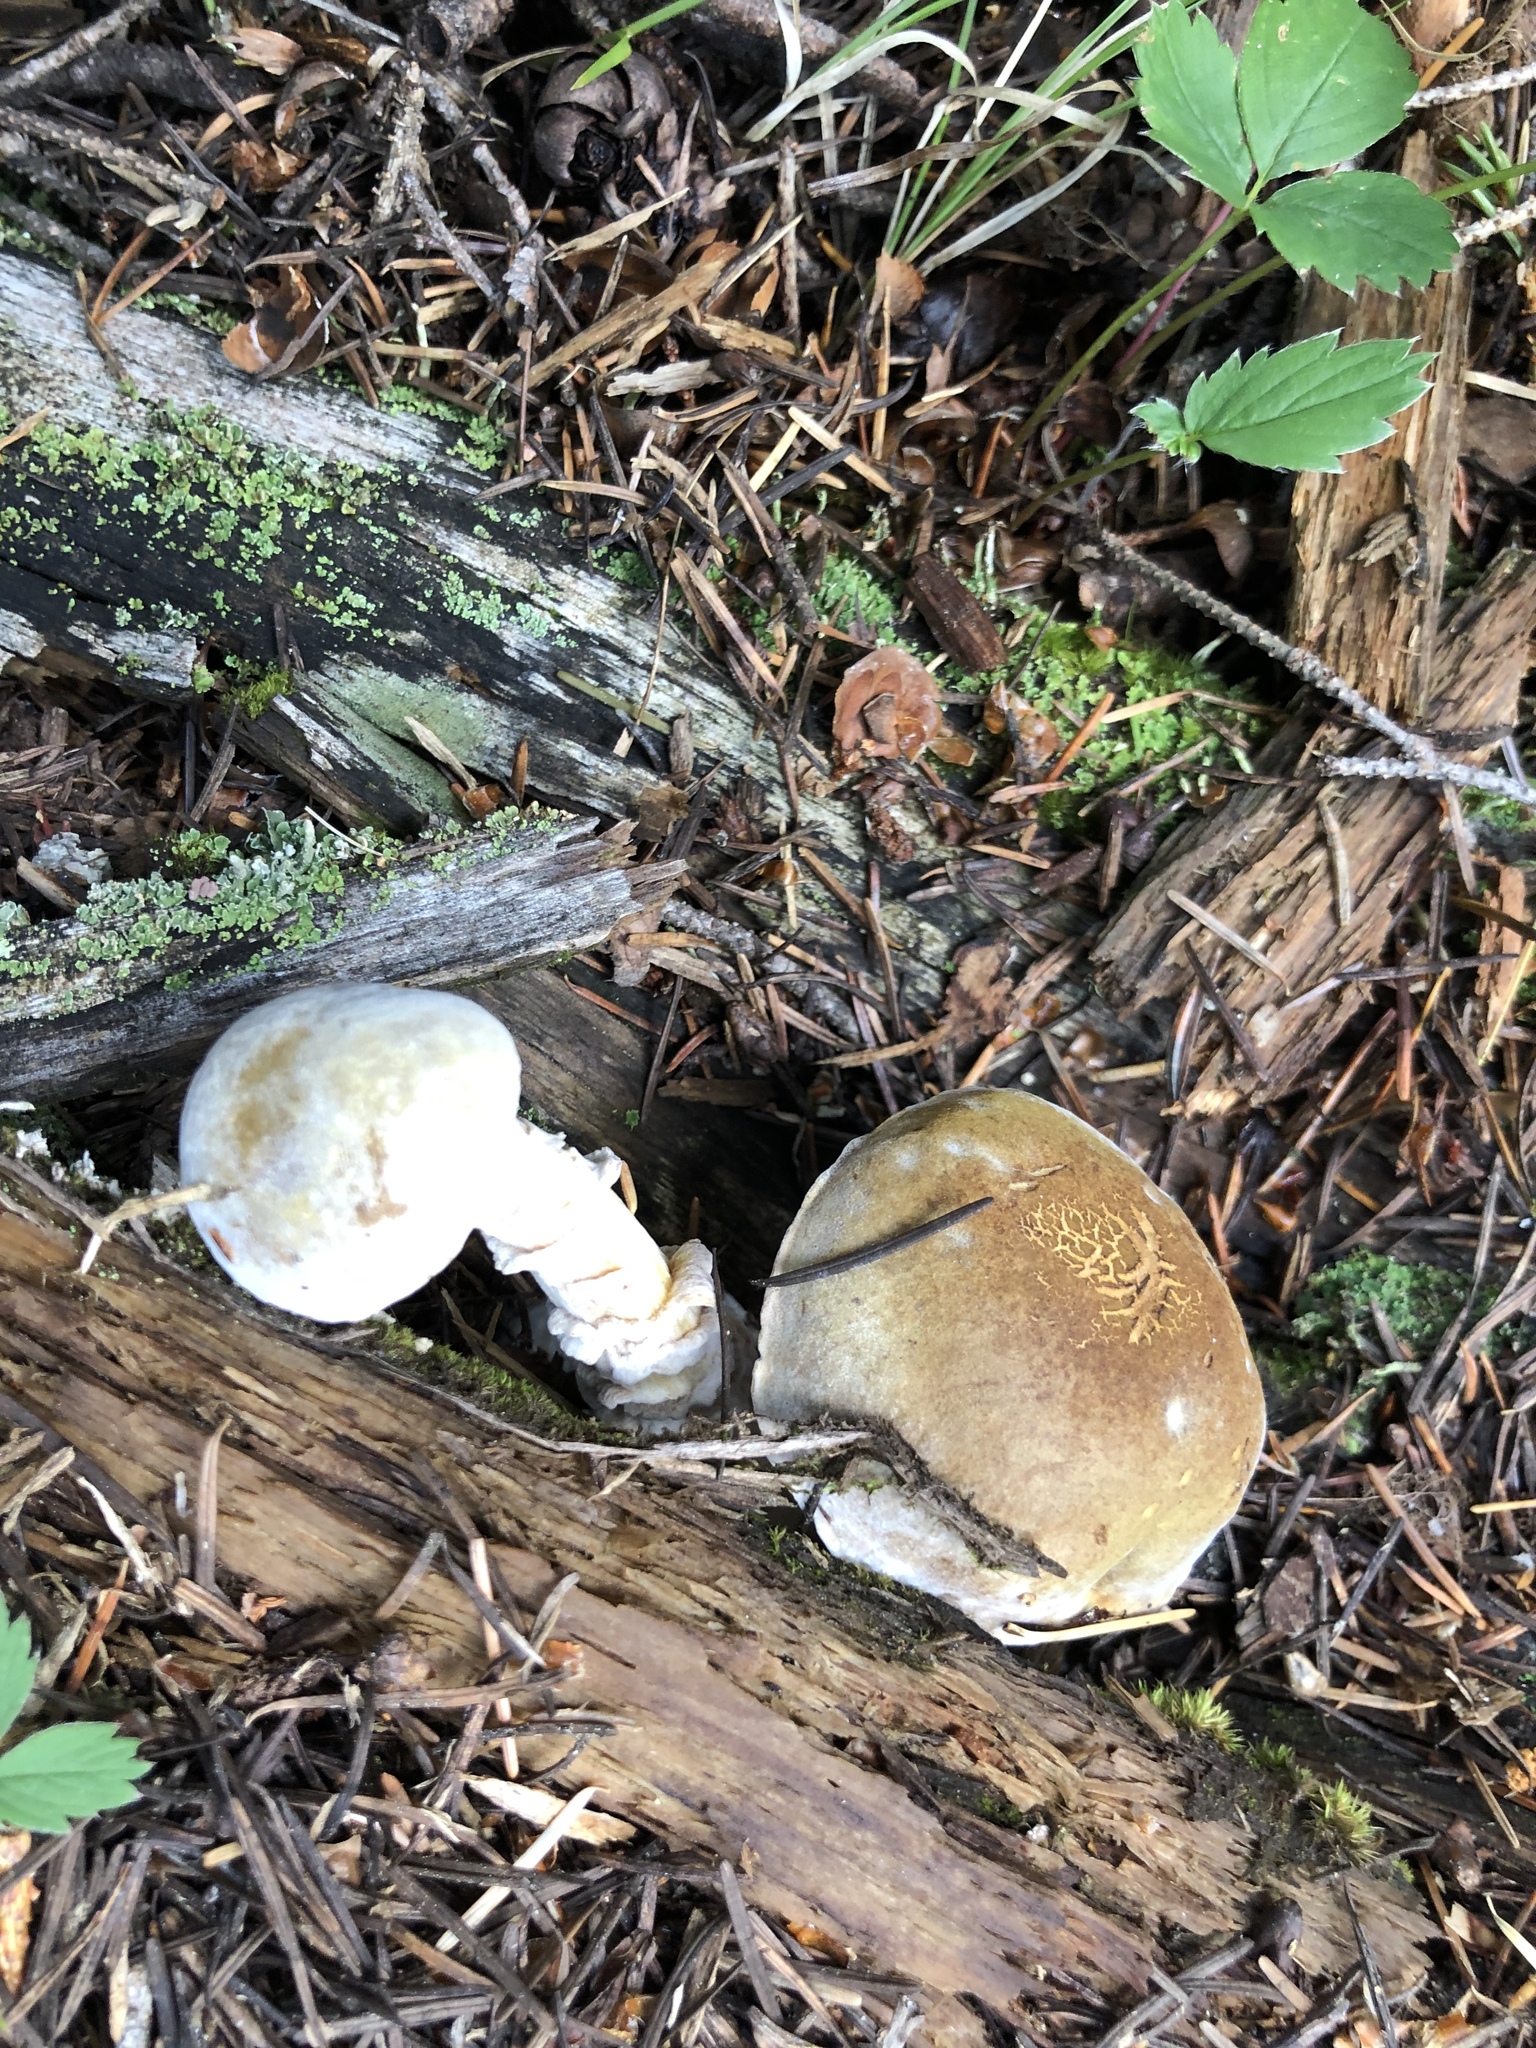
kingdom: Fungi
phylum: Ascomycota
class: Sordariomycetes
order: Hypocreales
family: Hypocreaceae
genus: Hypomyces
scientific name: Hypomyces chrysospermus
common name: Bolete mould
